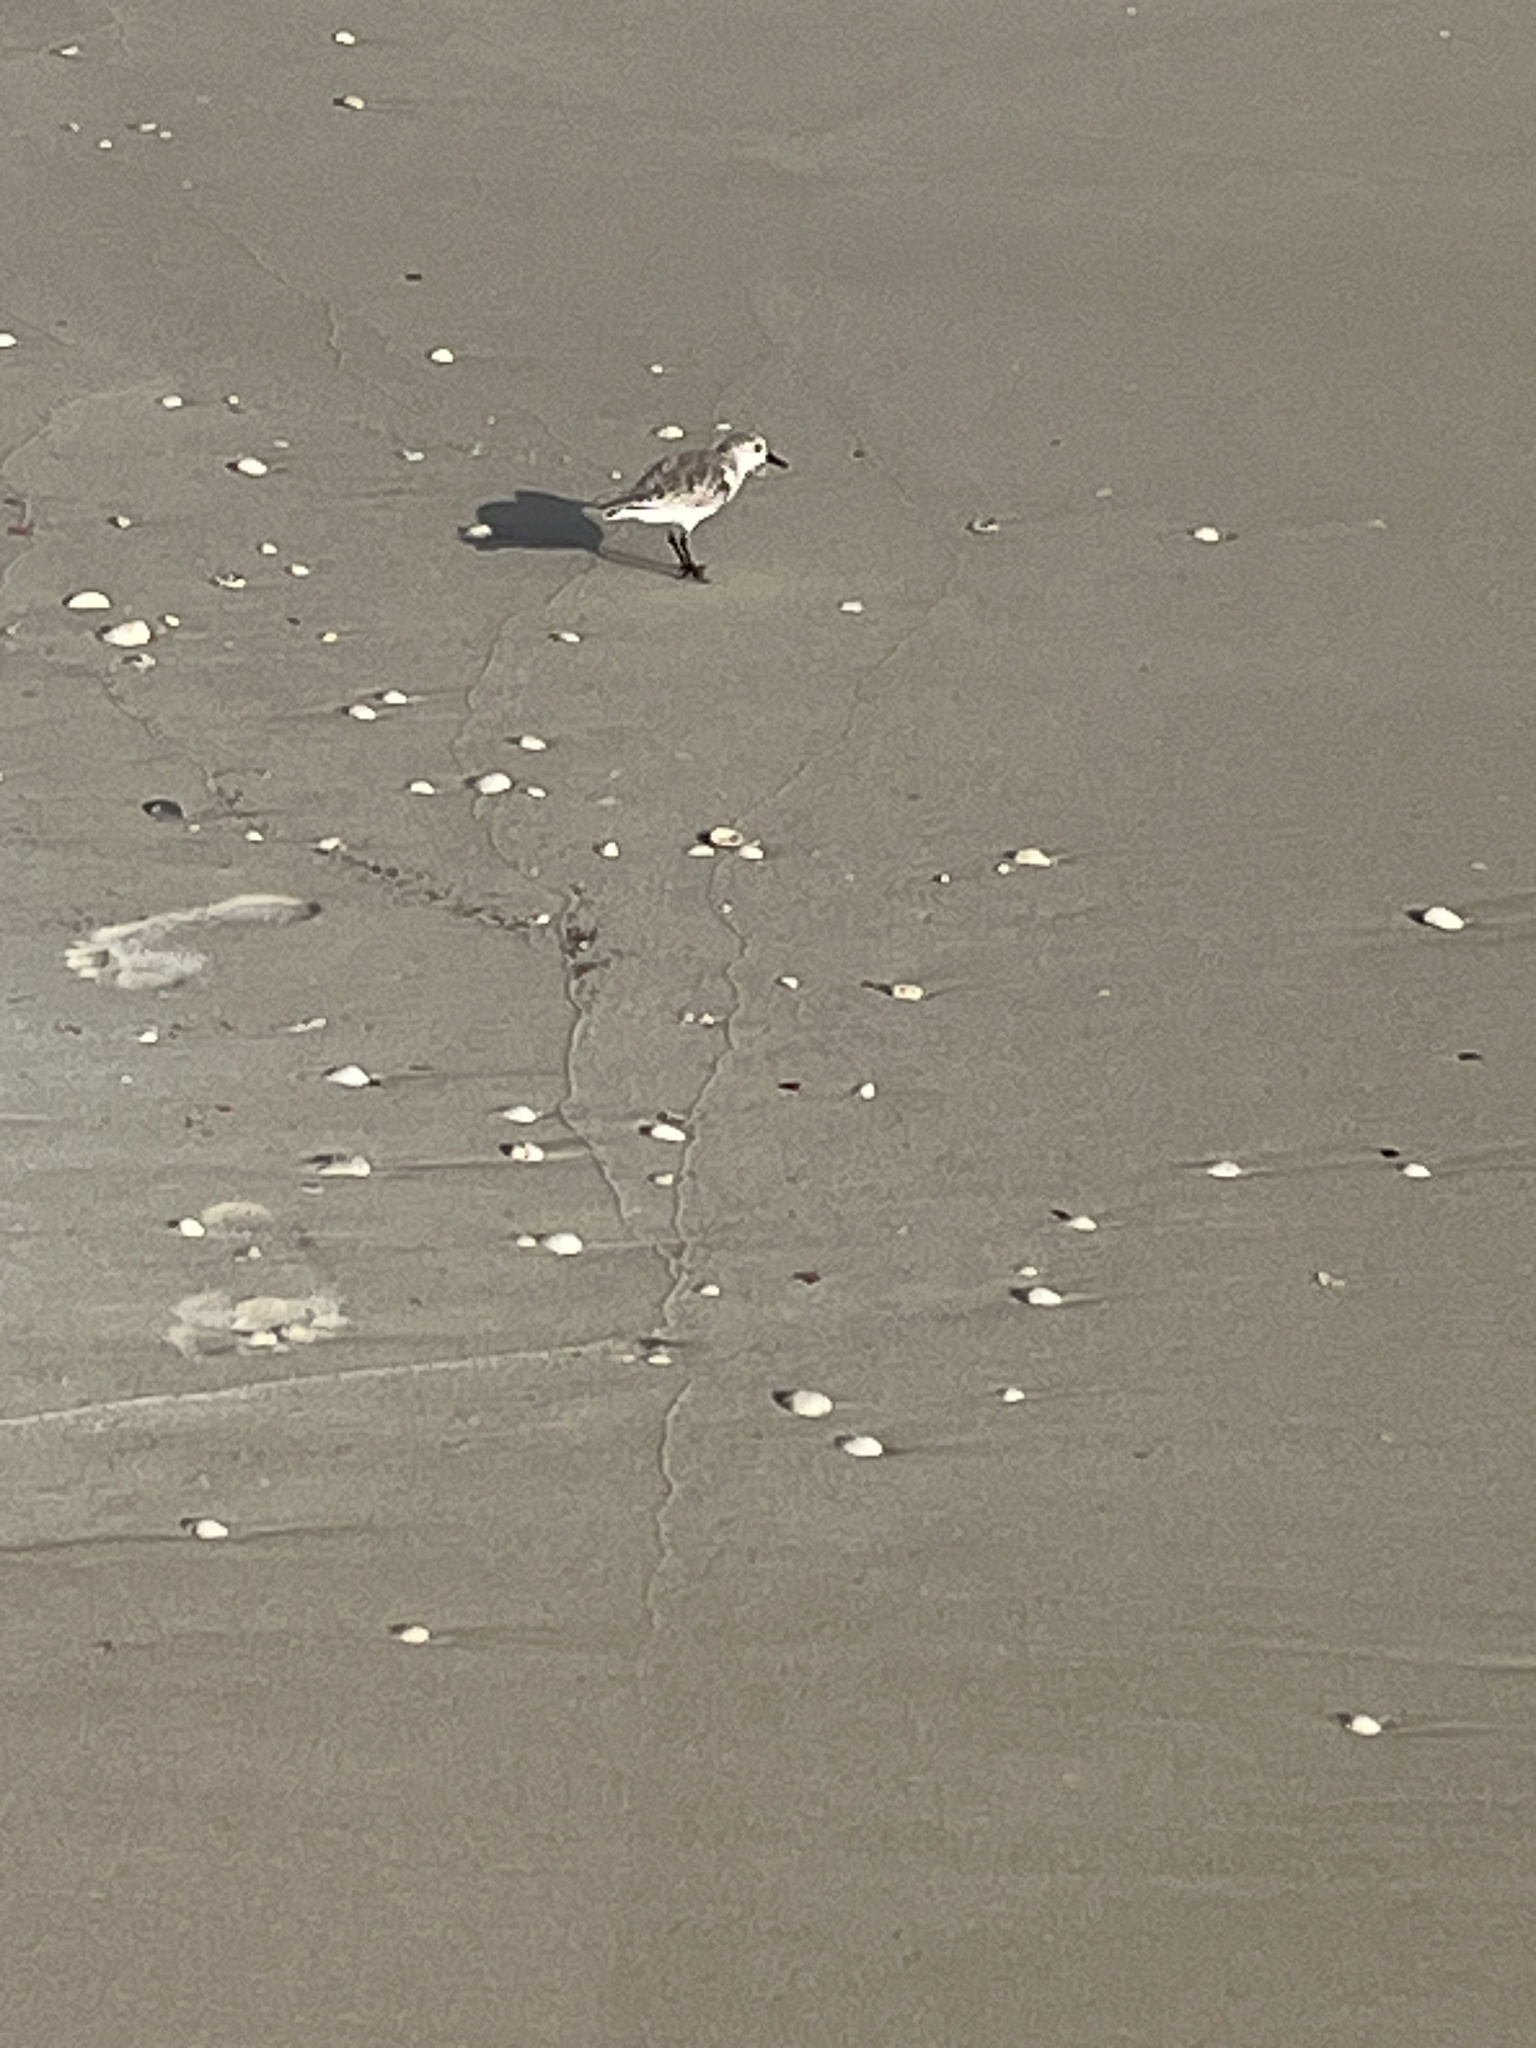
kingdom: Animalia
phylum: Chordata
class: Aves
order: Charadriiformes
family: Scolopacidae
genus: Calidris
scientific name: Calidris alba
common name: Sanderling
